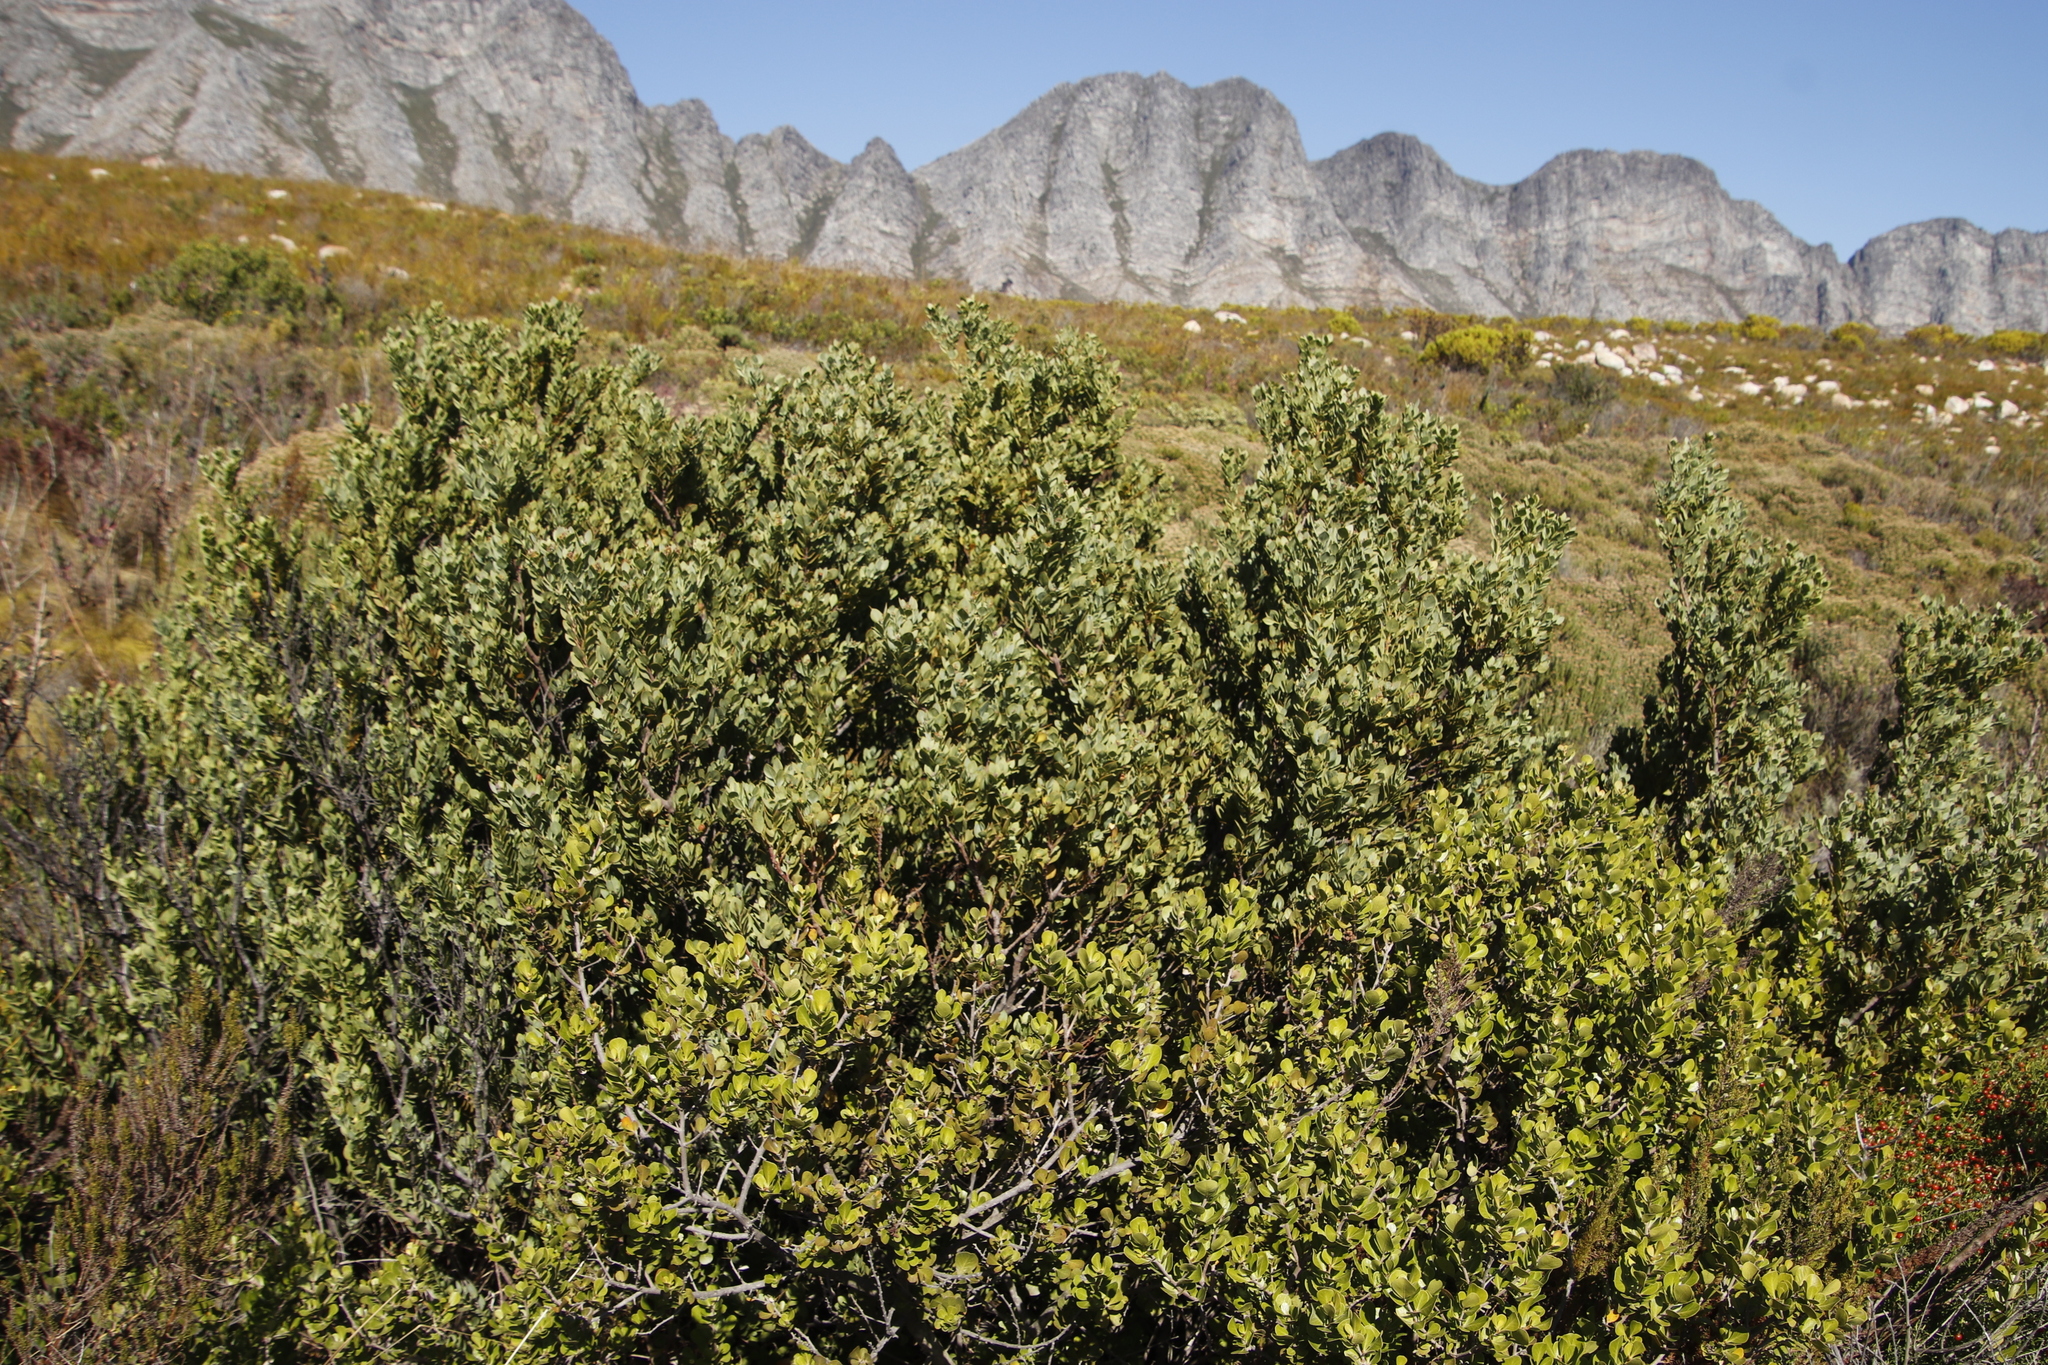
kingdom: Plantae
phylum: Tracheophyta
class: Magnoliopsida
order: Santalales
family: Santalaceae
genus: Osyris
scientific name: Osyris compressa
